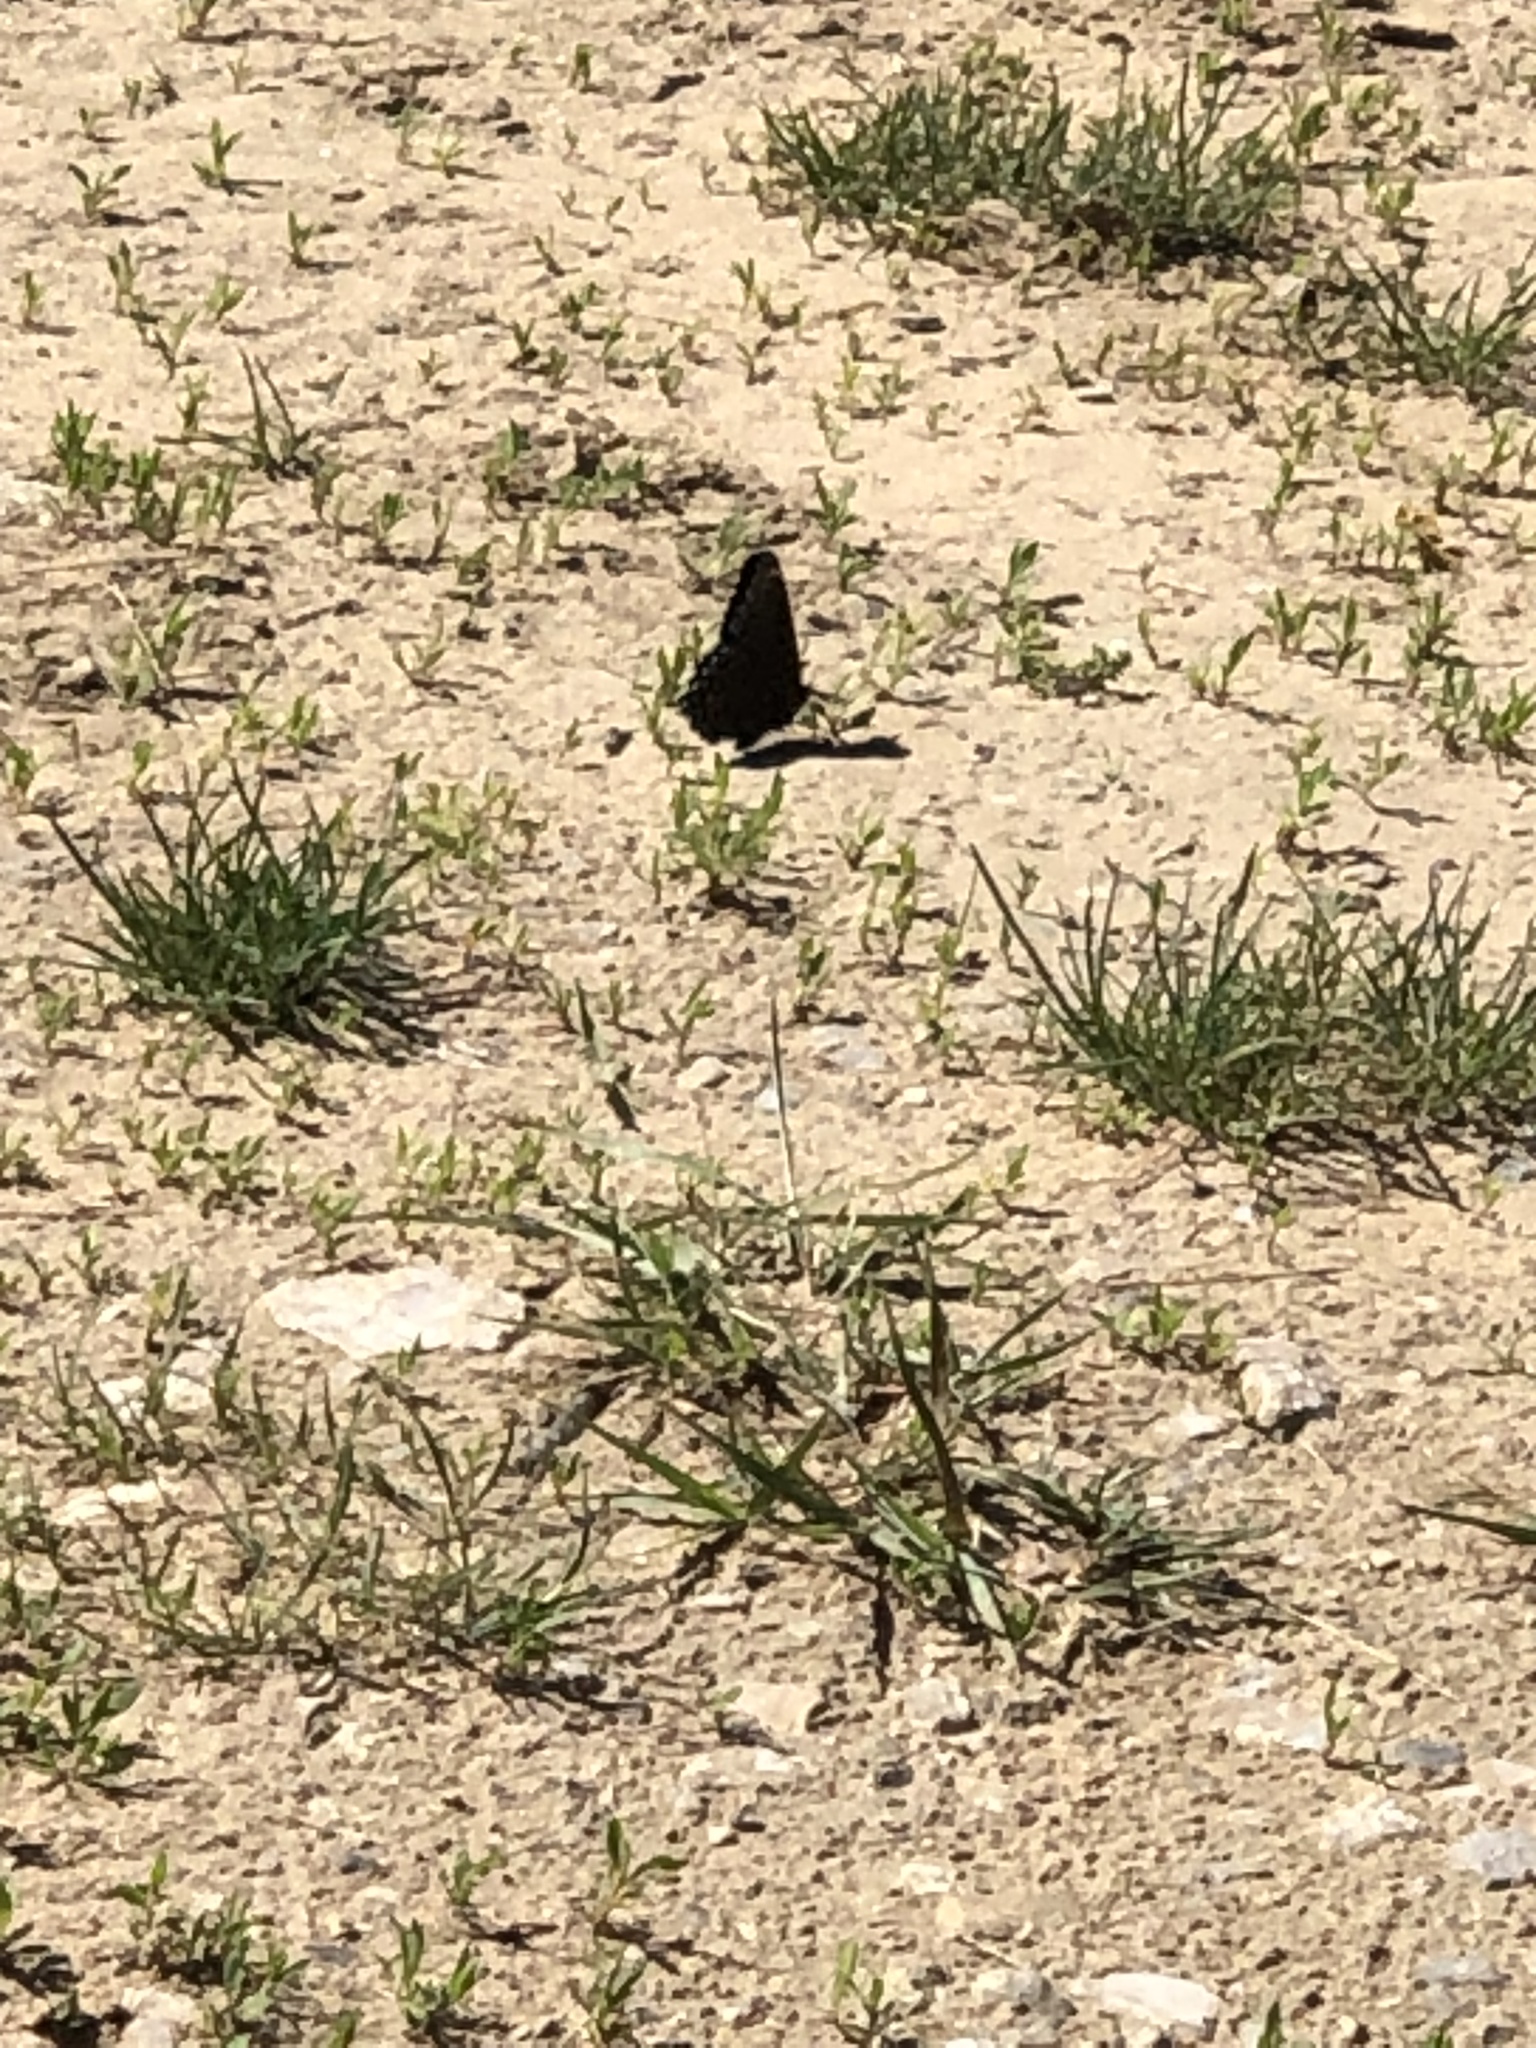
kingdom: Animalia
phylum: Arthropoda
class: Insecta
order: Lepidoptera
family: Nymphalidae
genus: Limenitis
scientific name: Limenitis astyanax
